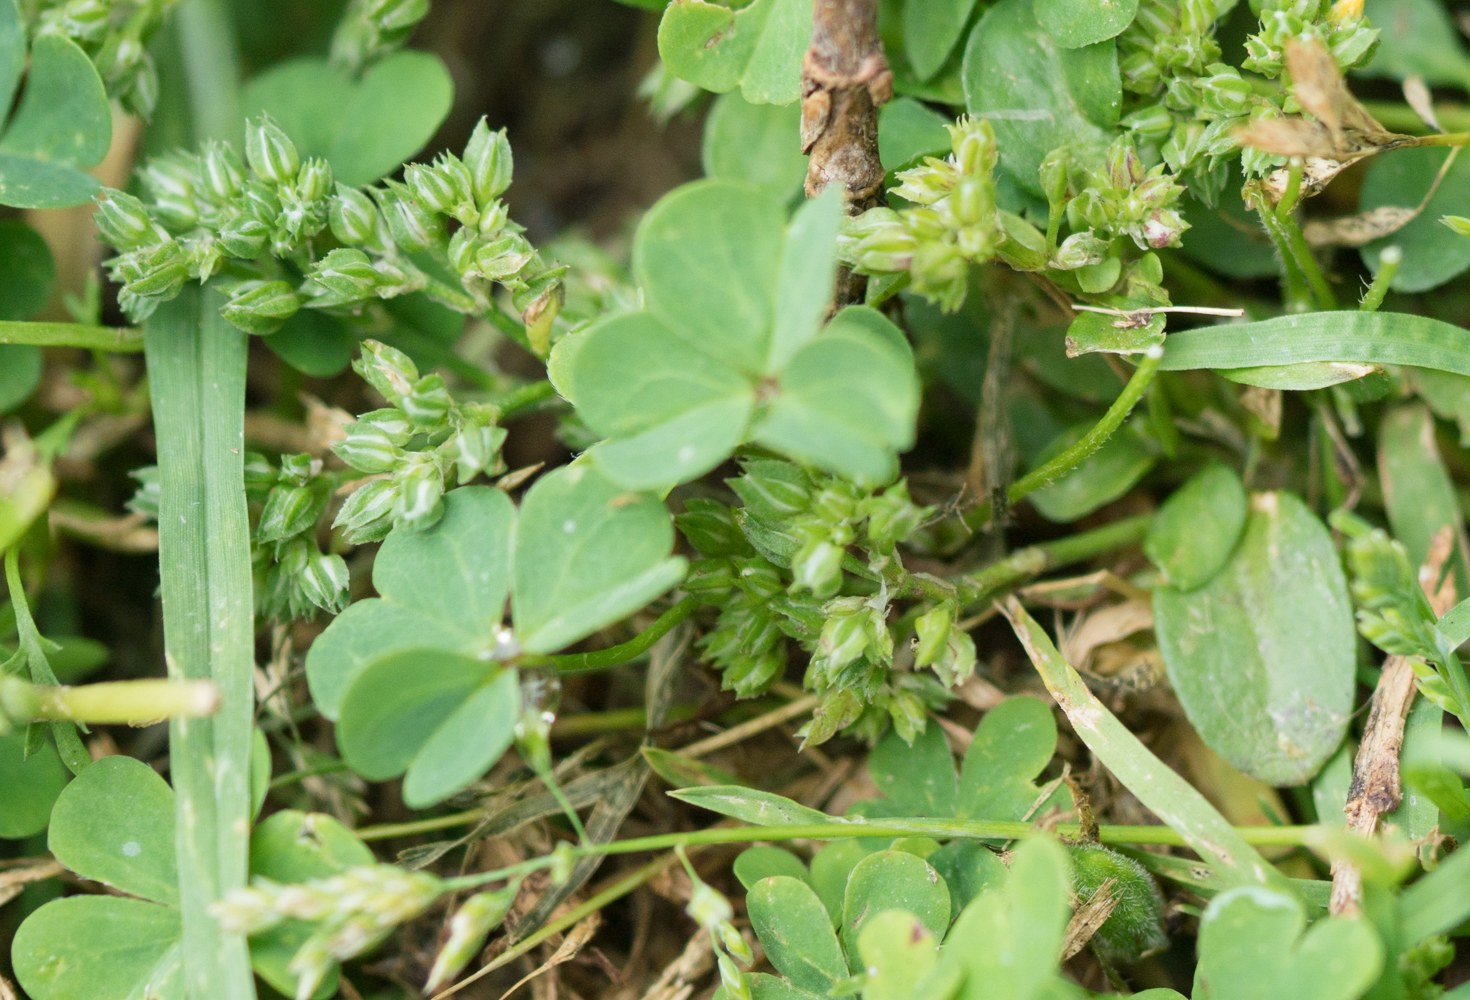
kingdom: Plantae
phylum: Tracheophyta
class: Magnoliopsida
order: Caryophyllales
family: Caryophyllaceae
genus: Polycarpon
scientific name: Polycarpon tetraphyllum
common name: Four-leaved all-seed
